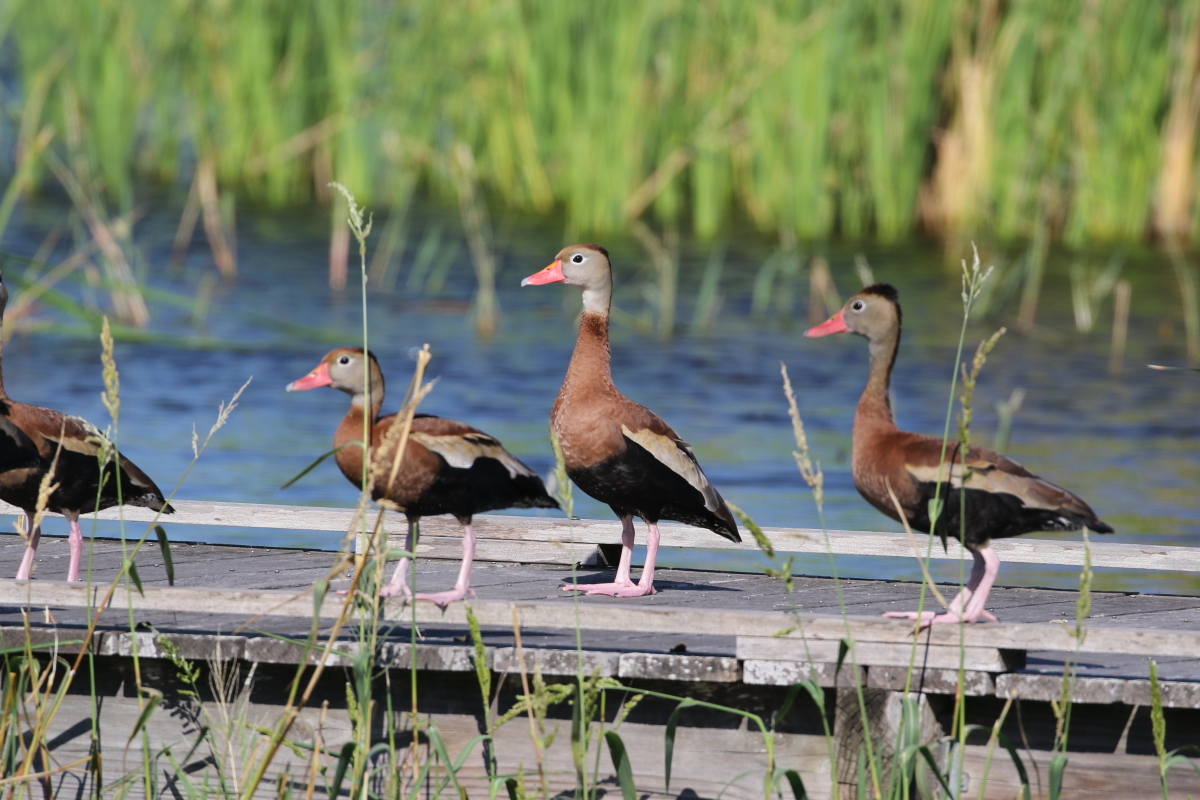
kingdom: Animalia
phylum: Chordata
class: Aves
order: Anseriformes
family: Anatidae
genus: Dendrocygna
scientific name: Dendrocygna autumnalis
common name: Black-bellied whistling duck
